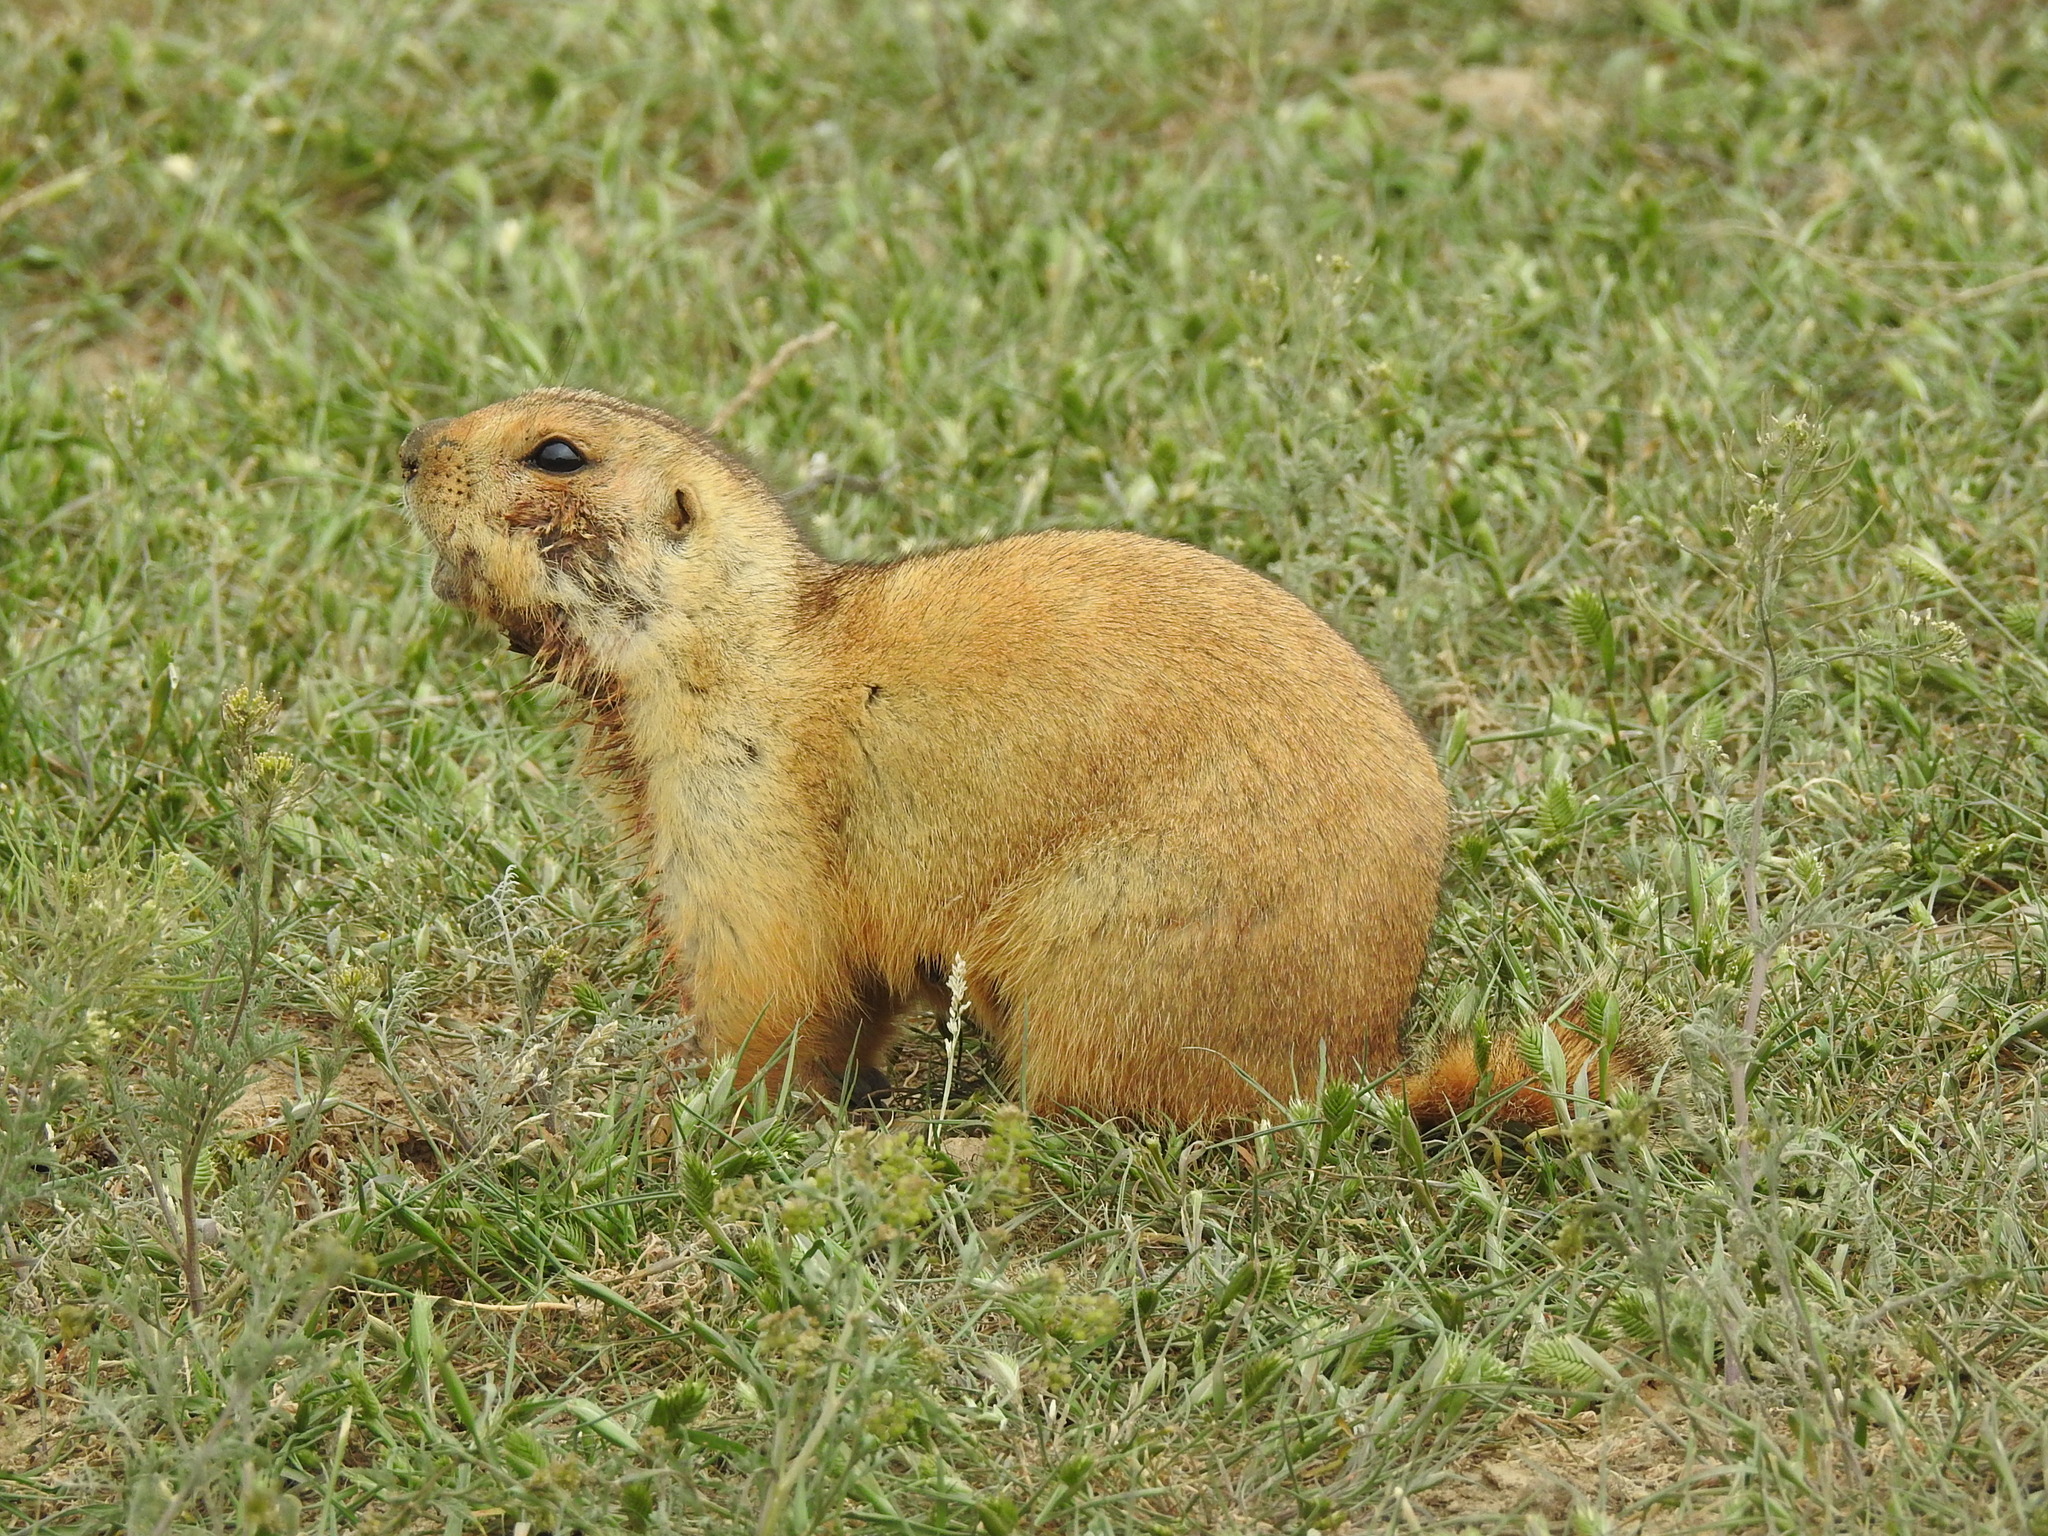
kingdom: Animalia
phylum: Chordata
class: Mammalia
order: Rodentia
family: Sciuridae
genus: Spermophilus
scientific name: Spermophilus fulvus
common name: Yellow ground squirrel
